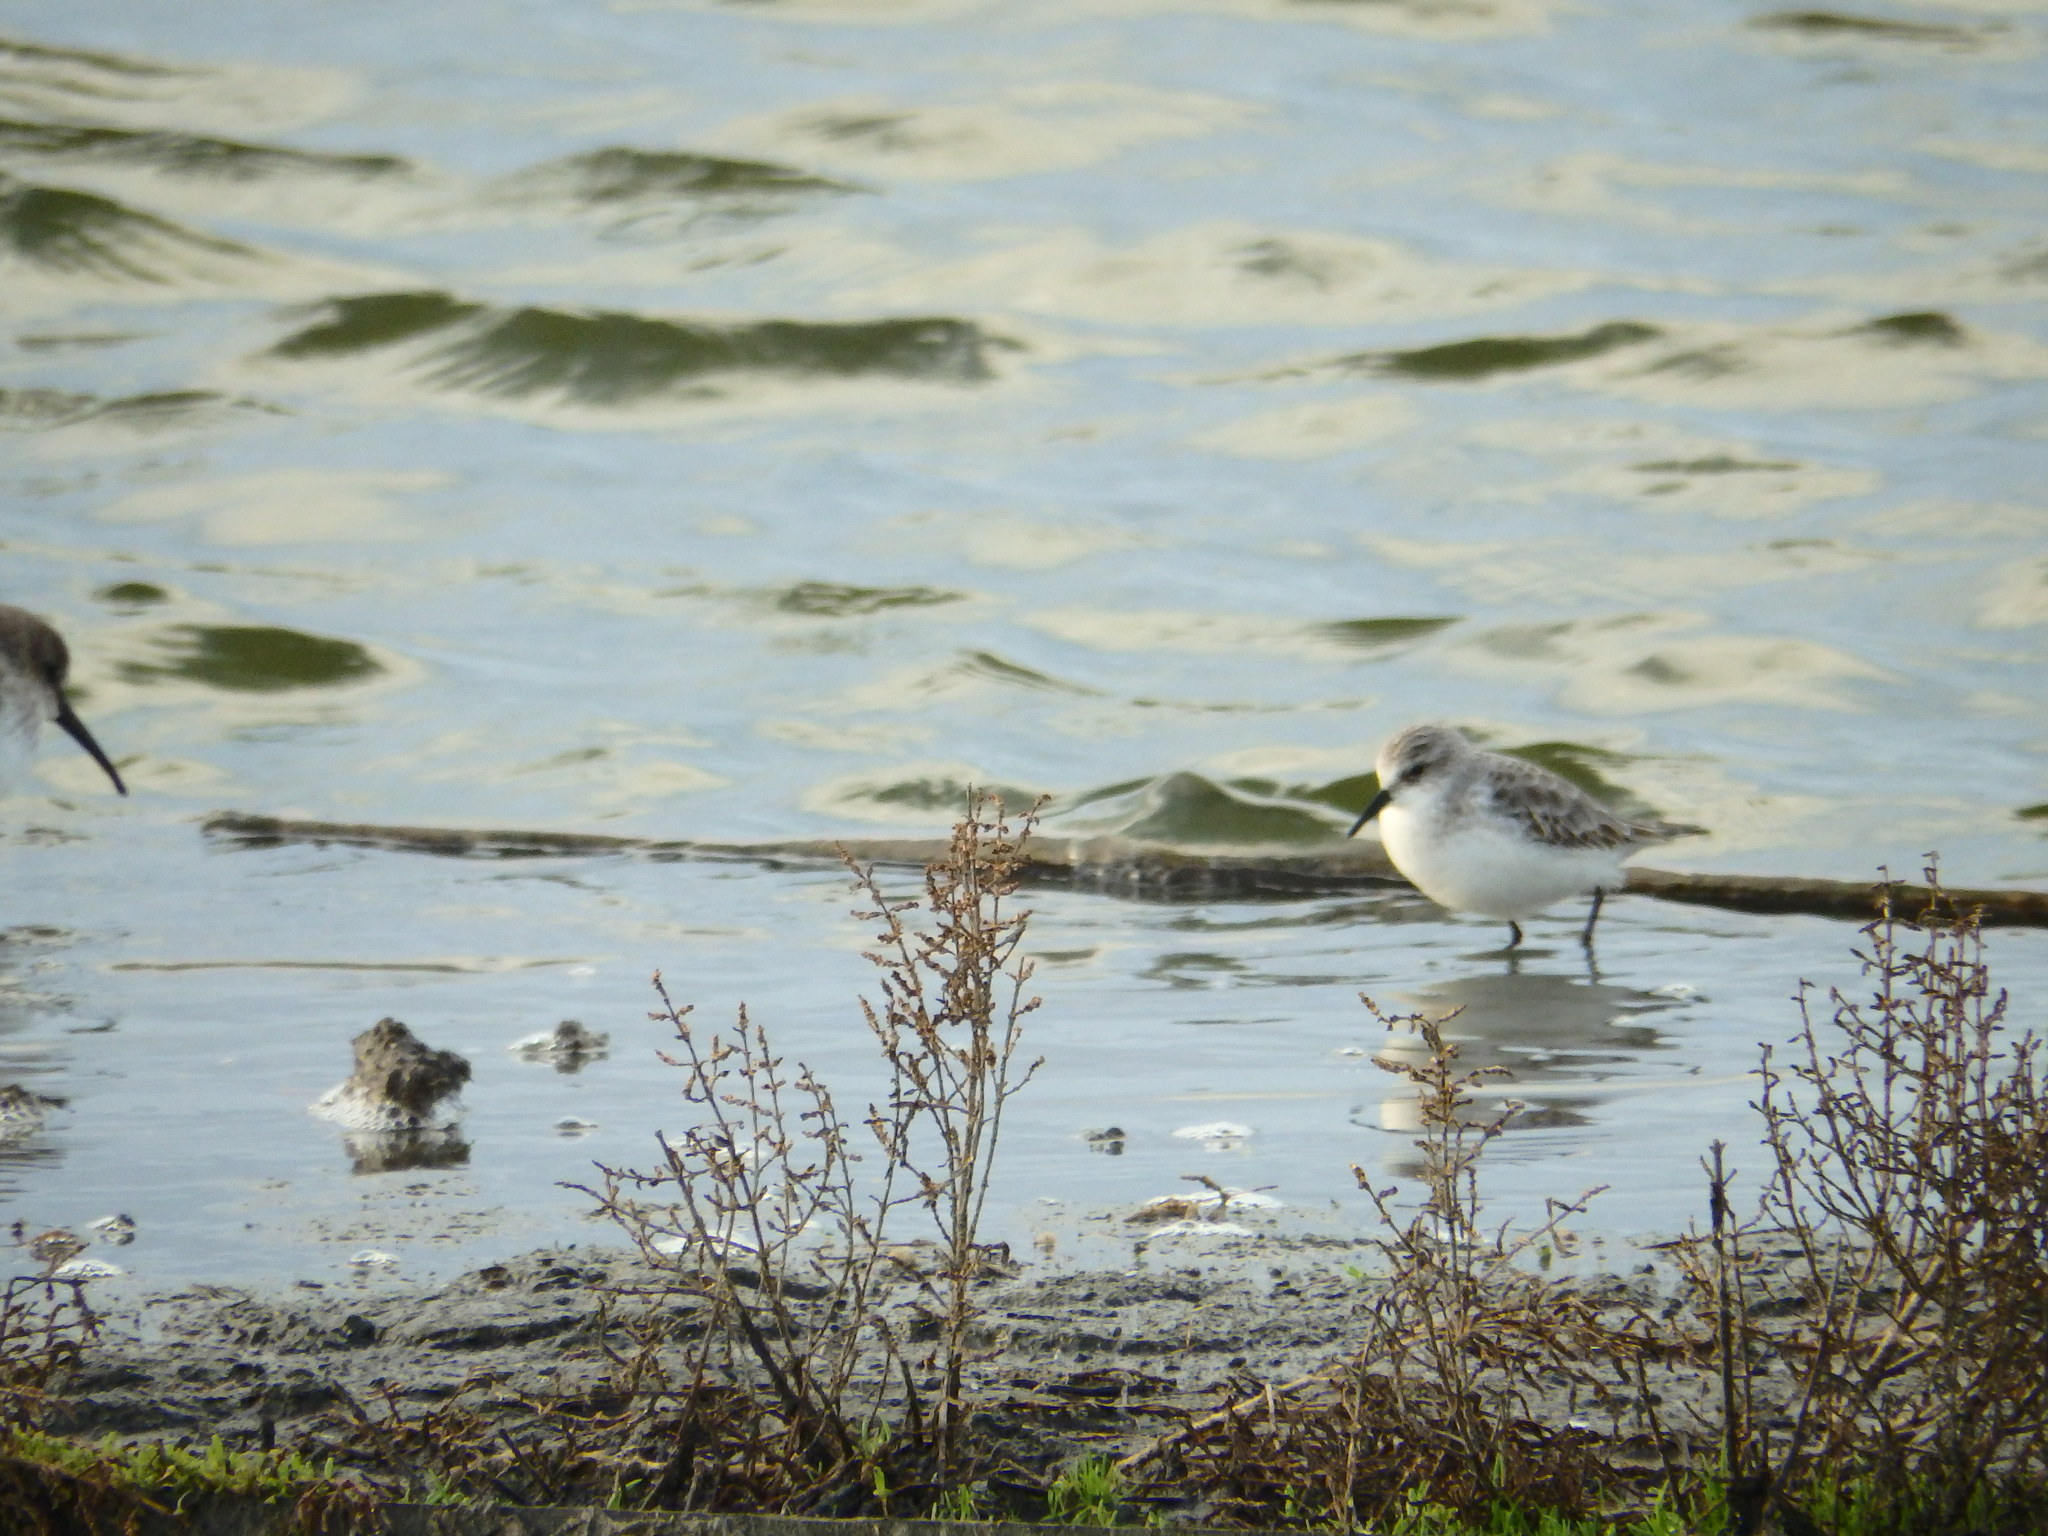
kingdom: Animalia
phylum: Chordata
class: Aves
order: Charadriiformes
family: Scolopacidae
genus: Calidris
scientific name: Calidris minuta
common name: Little stint
